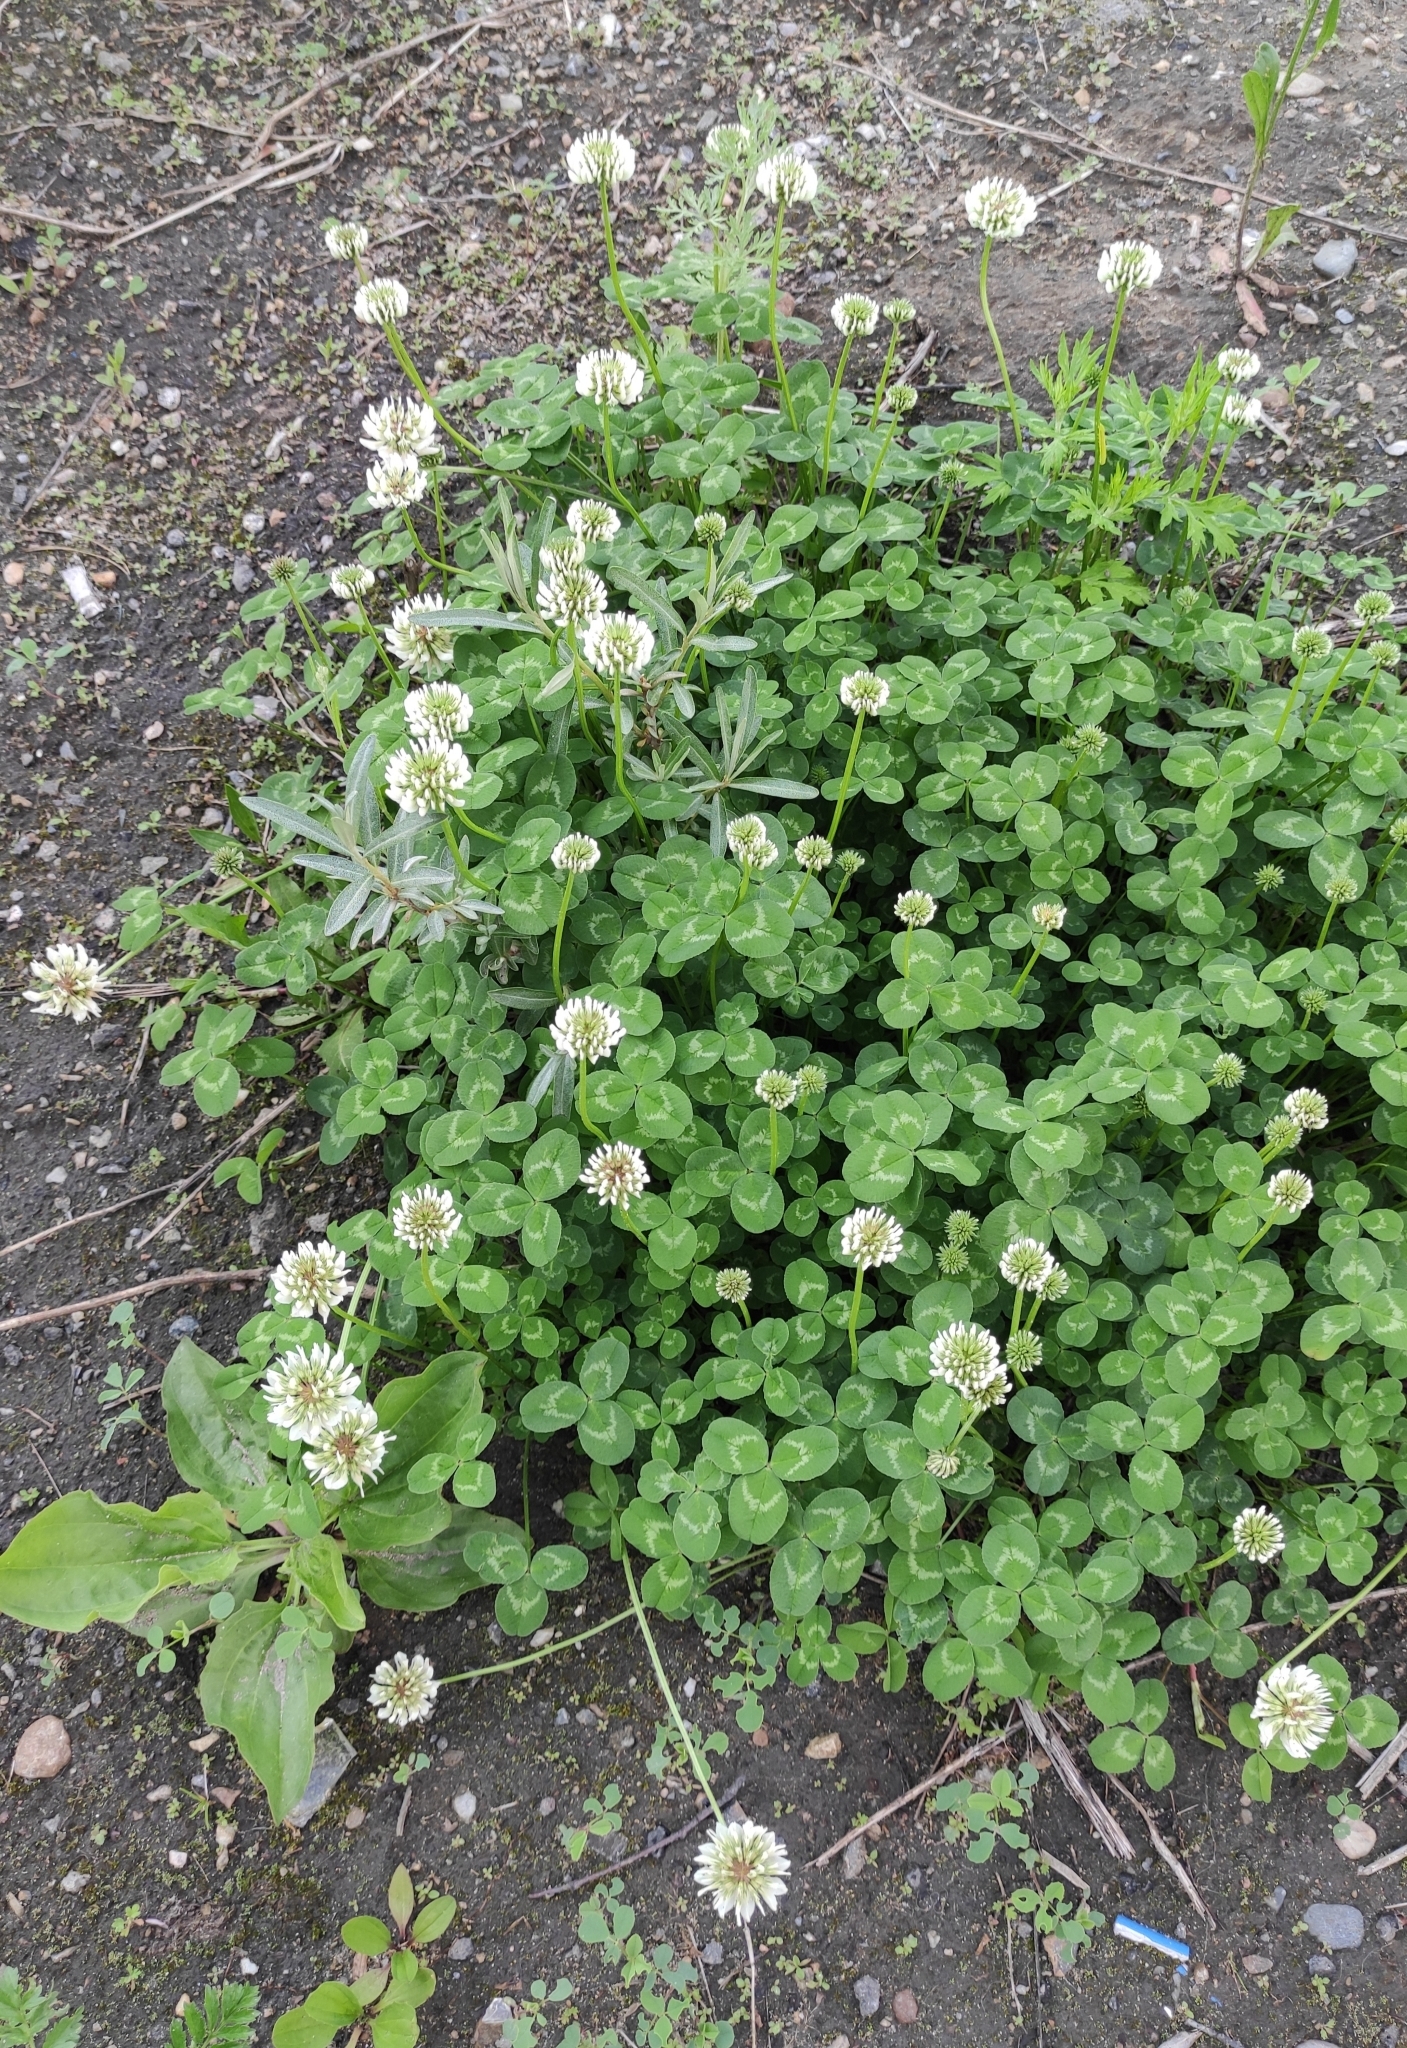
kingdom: Plantae
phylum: Tracheophyta
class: Magnoliopsida
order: Fabales
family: Fabaceae
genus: Trifolium
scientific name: Trifolium repens
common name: White clover
